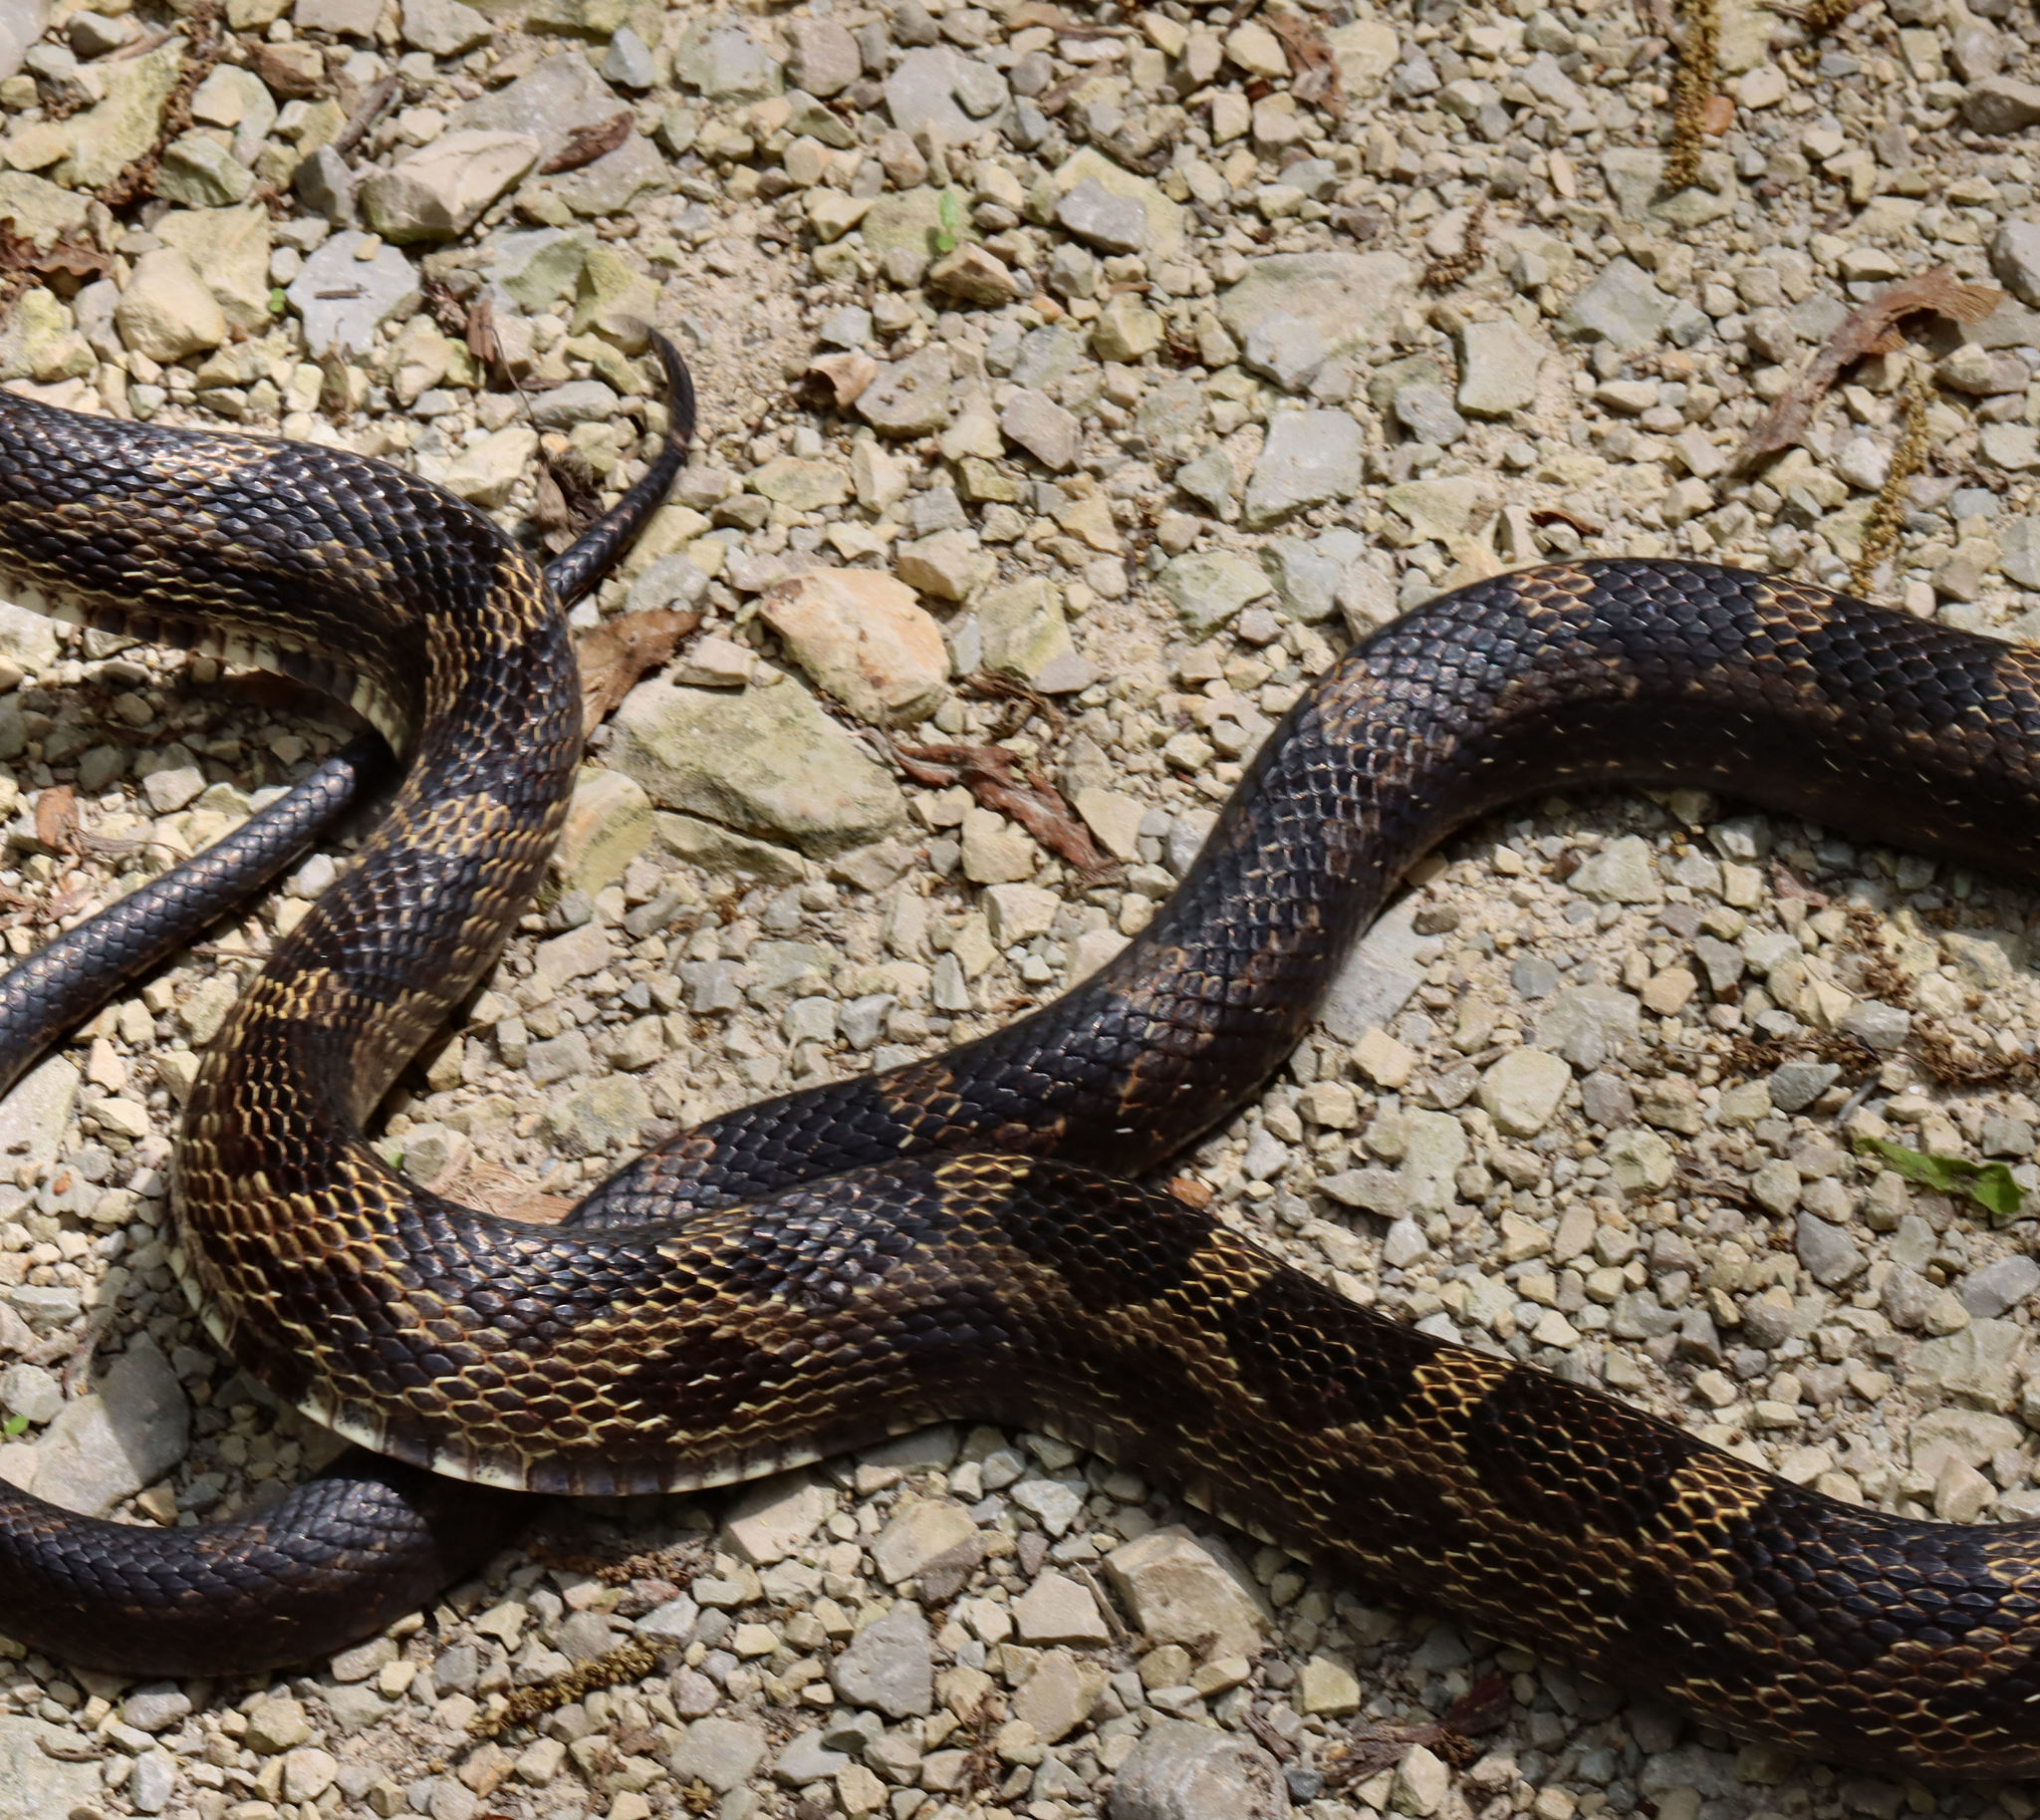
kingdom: Animalia
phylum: Chordata
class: Squamata
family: Colubridae
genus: Pantherophis
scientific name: Pantherophis obsoletus
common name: Black rat snake
